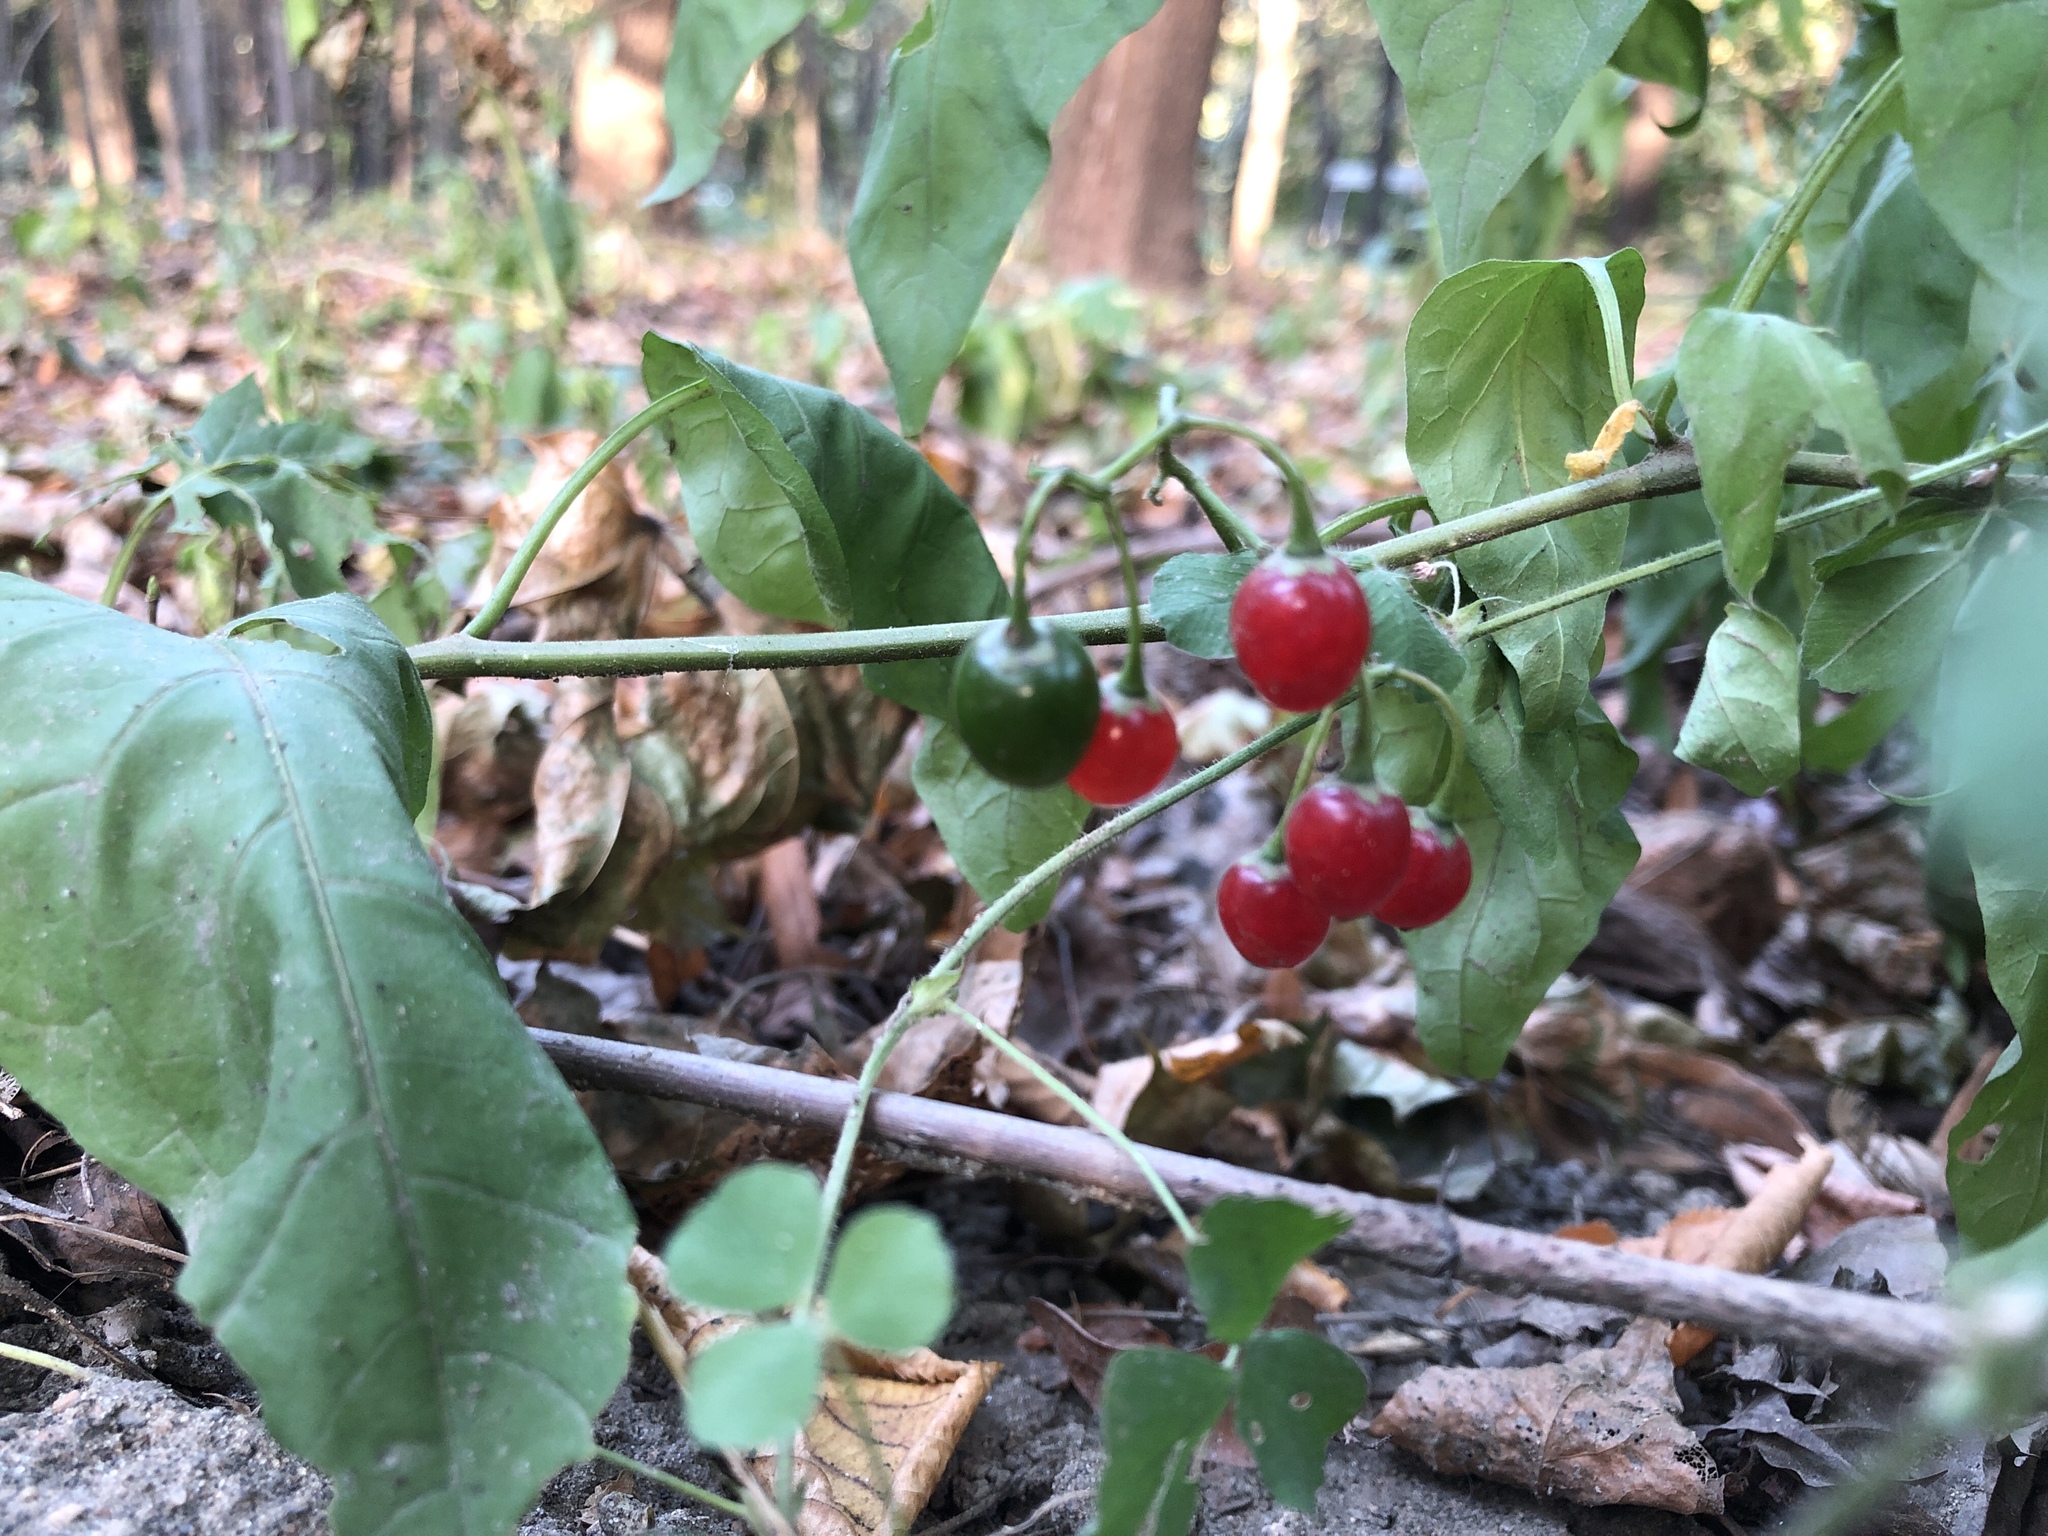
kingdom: Plantae
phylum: Tracheophyta
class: Magnoliopsida
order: Solanales
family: Solanaceae
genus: Solanum
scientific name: Solanum dulcamara
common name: Climbing nightshade
